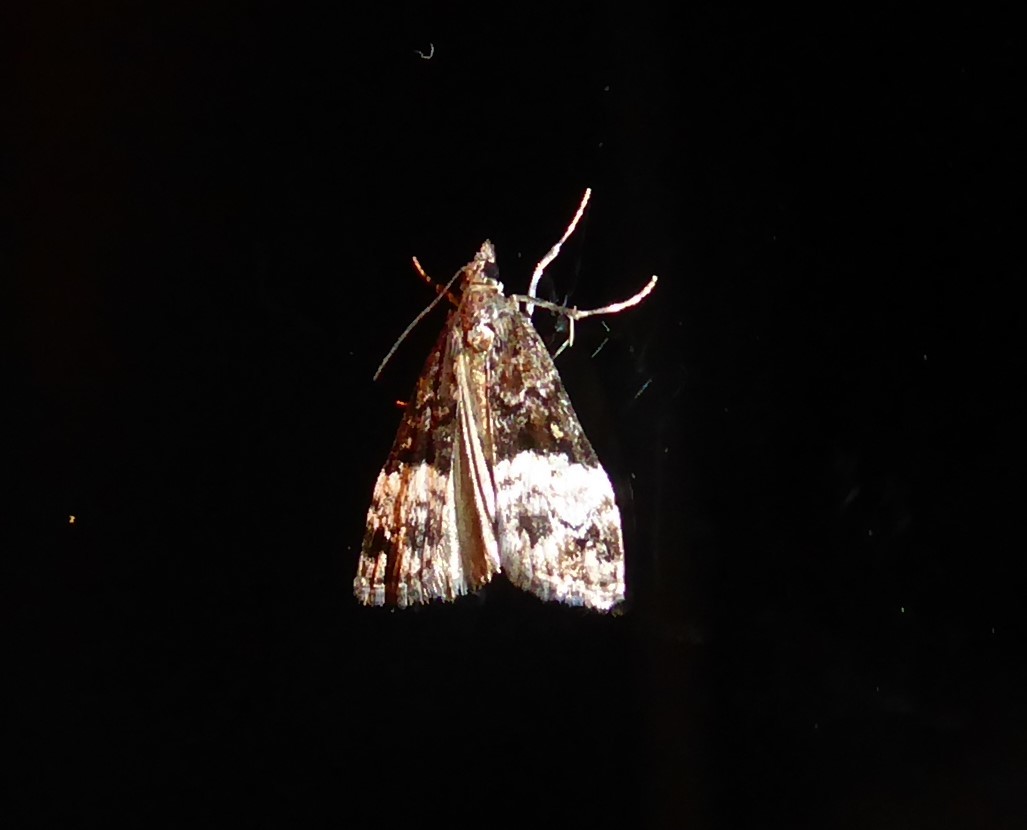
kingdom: Animalia
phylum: Arthropoda
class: Insecta
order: Lepidoptera
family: Crambidae
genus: Scoparia
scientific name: Scoparia minusculalis
